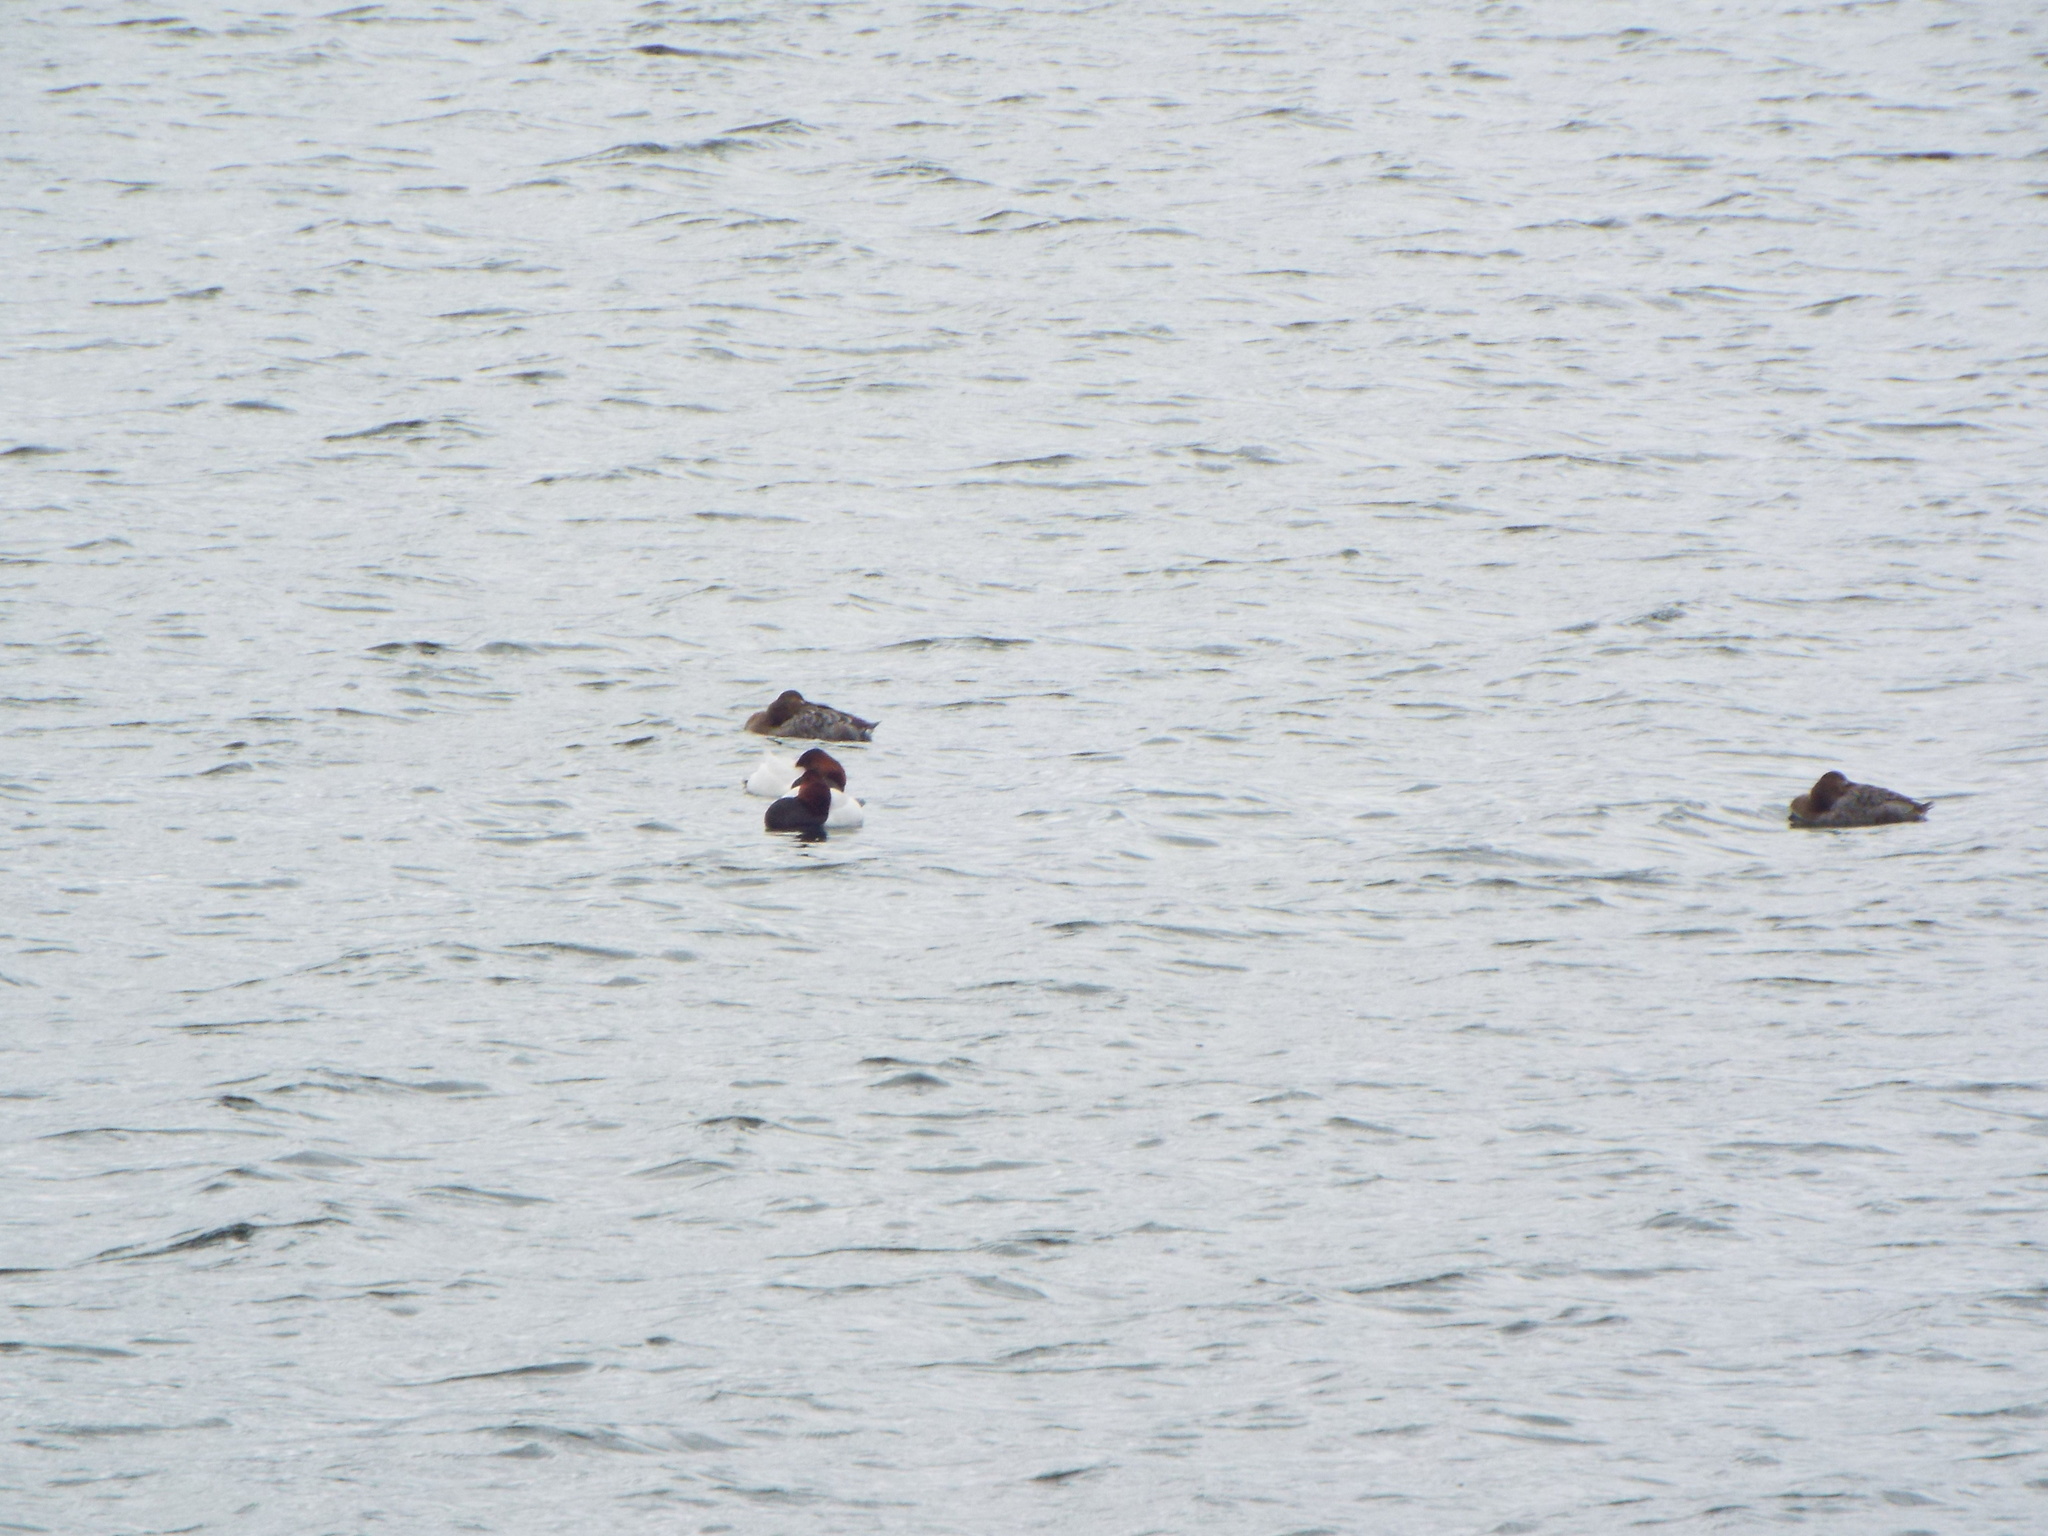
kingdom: Animalia
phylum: Chordata
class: Aves
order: Anseriformes
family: Anatidae
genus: Aythya
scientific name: Aythya valisineria
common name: Canvasback
